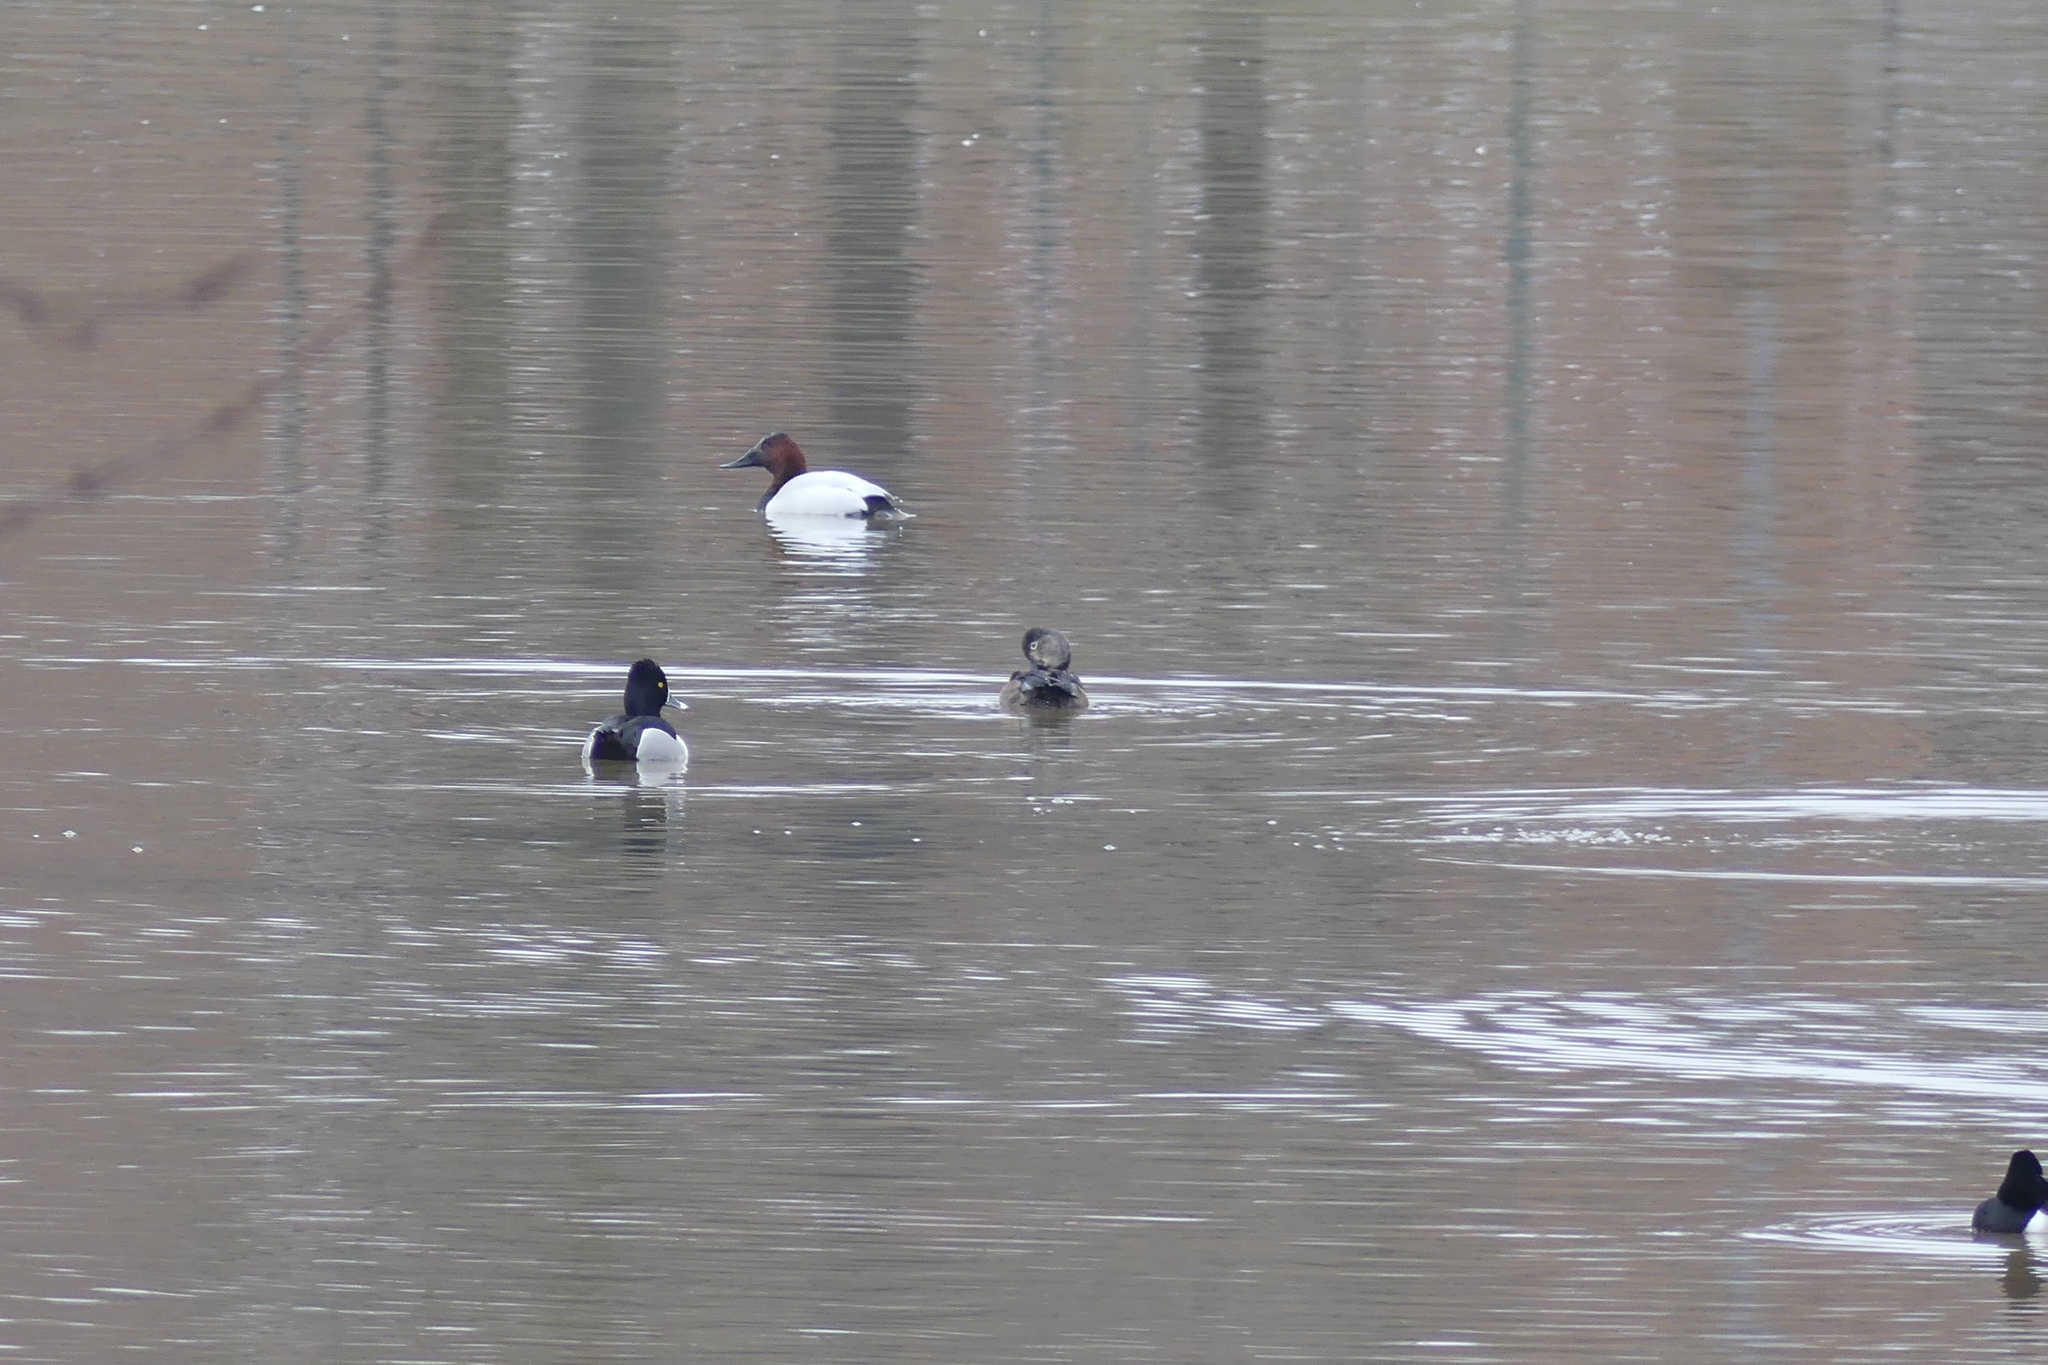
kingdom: Animalia
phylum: Chordata
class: Aves
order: Anseriformes
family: Anatidae
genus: Aythya
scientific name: Aythya collaris
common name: Ring-necked duck
